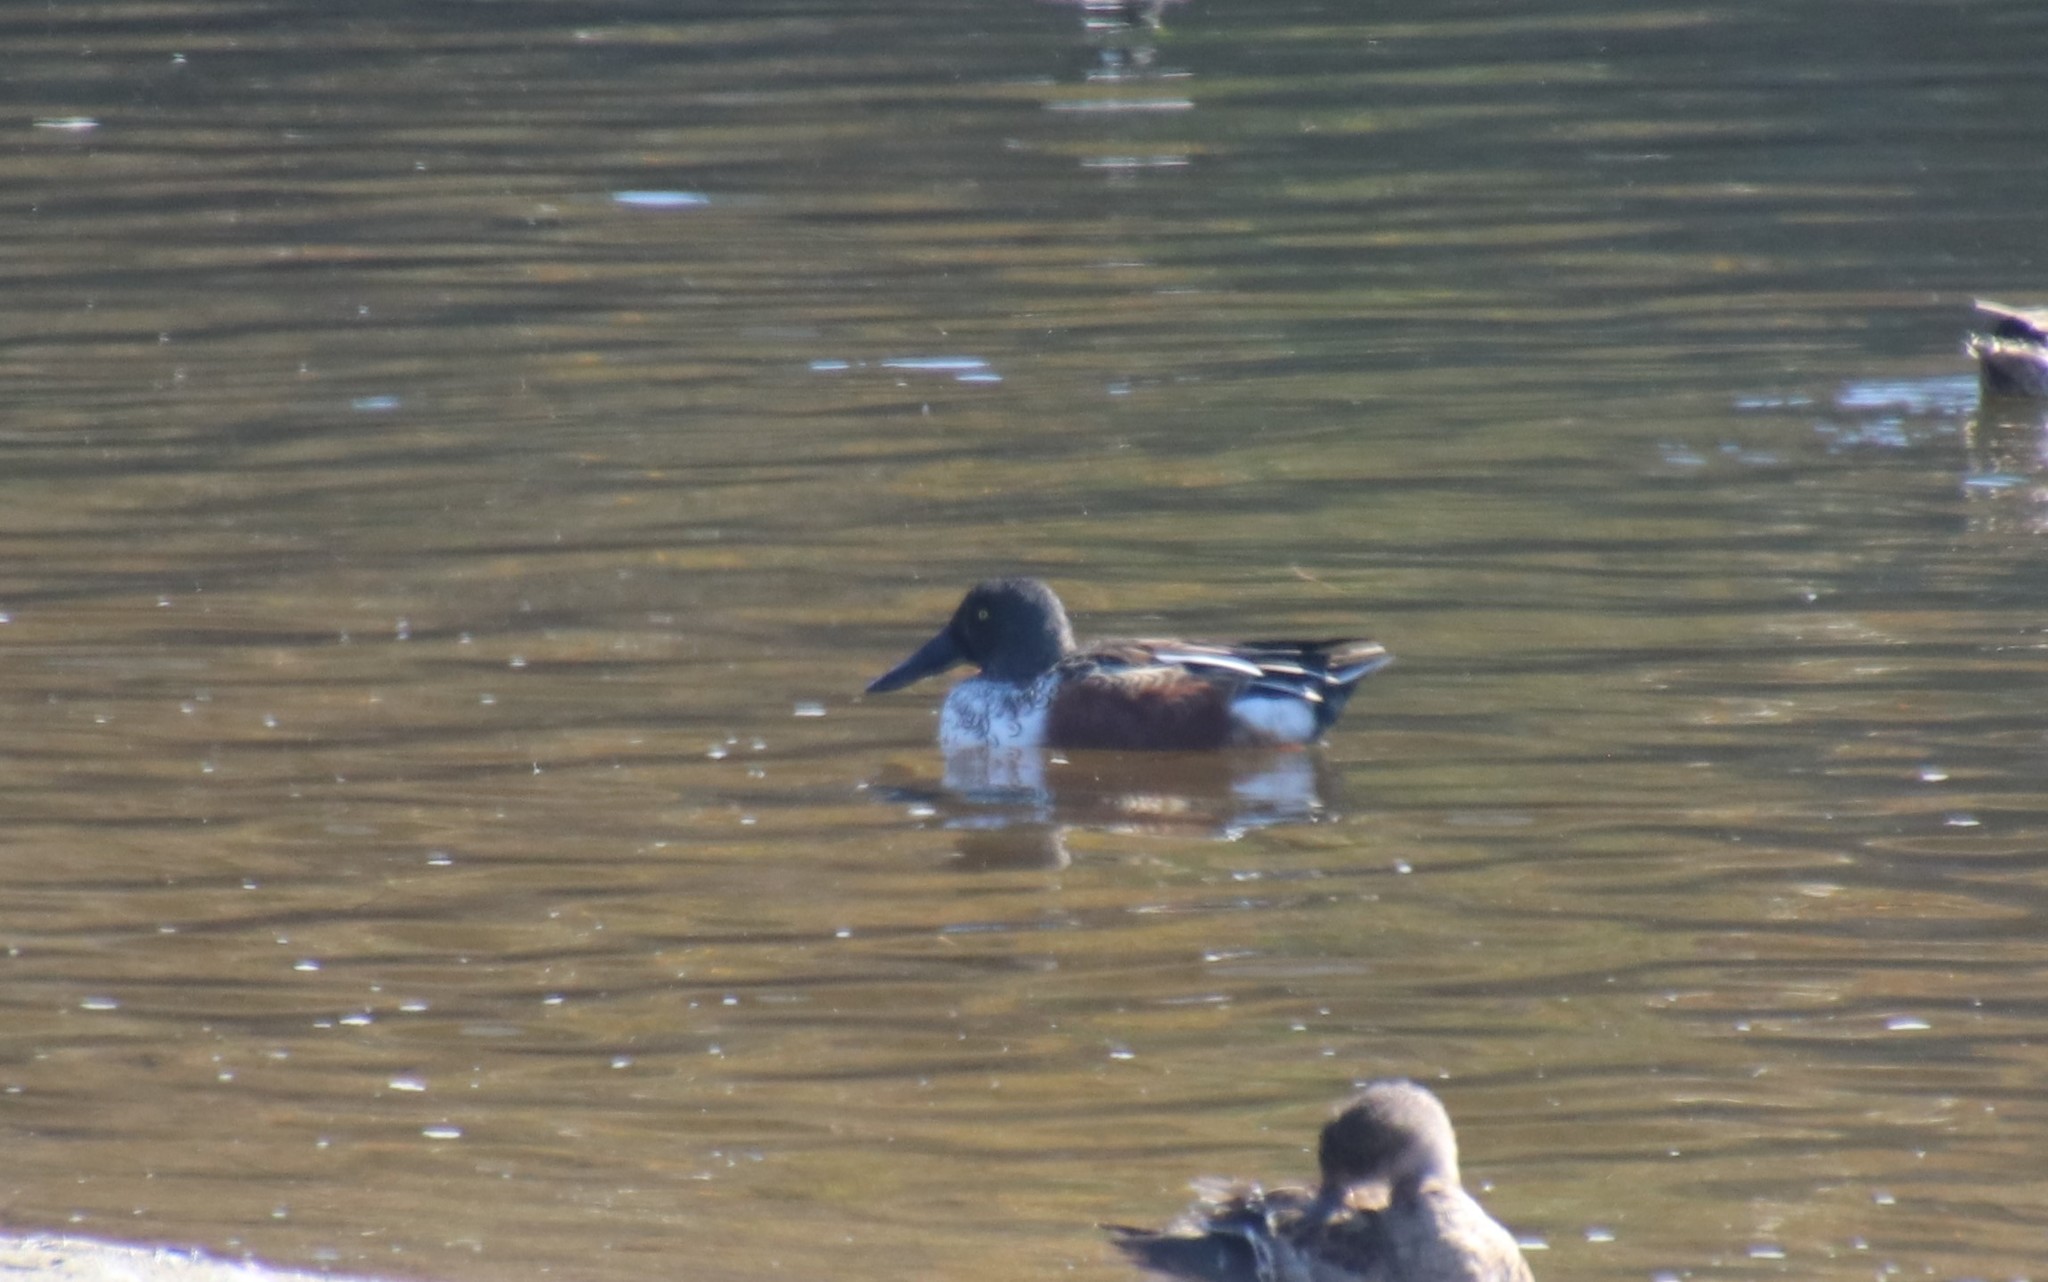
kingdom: Animalia
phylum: Chordata
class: Aves
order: Anseriformes
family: Anatidae
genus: Spatula
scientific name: Spatula clypeata
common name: Northern shoveler
